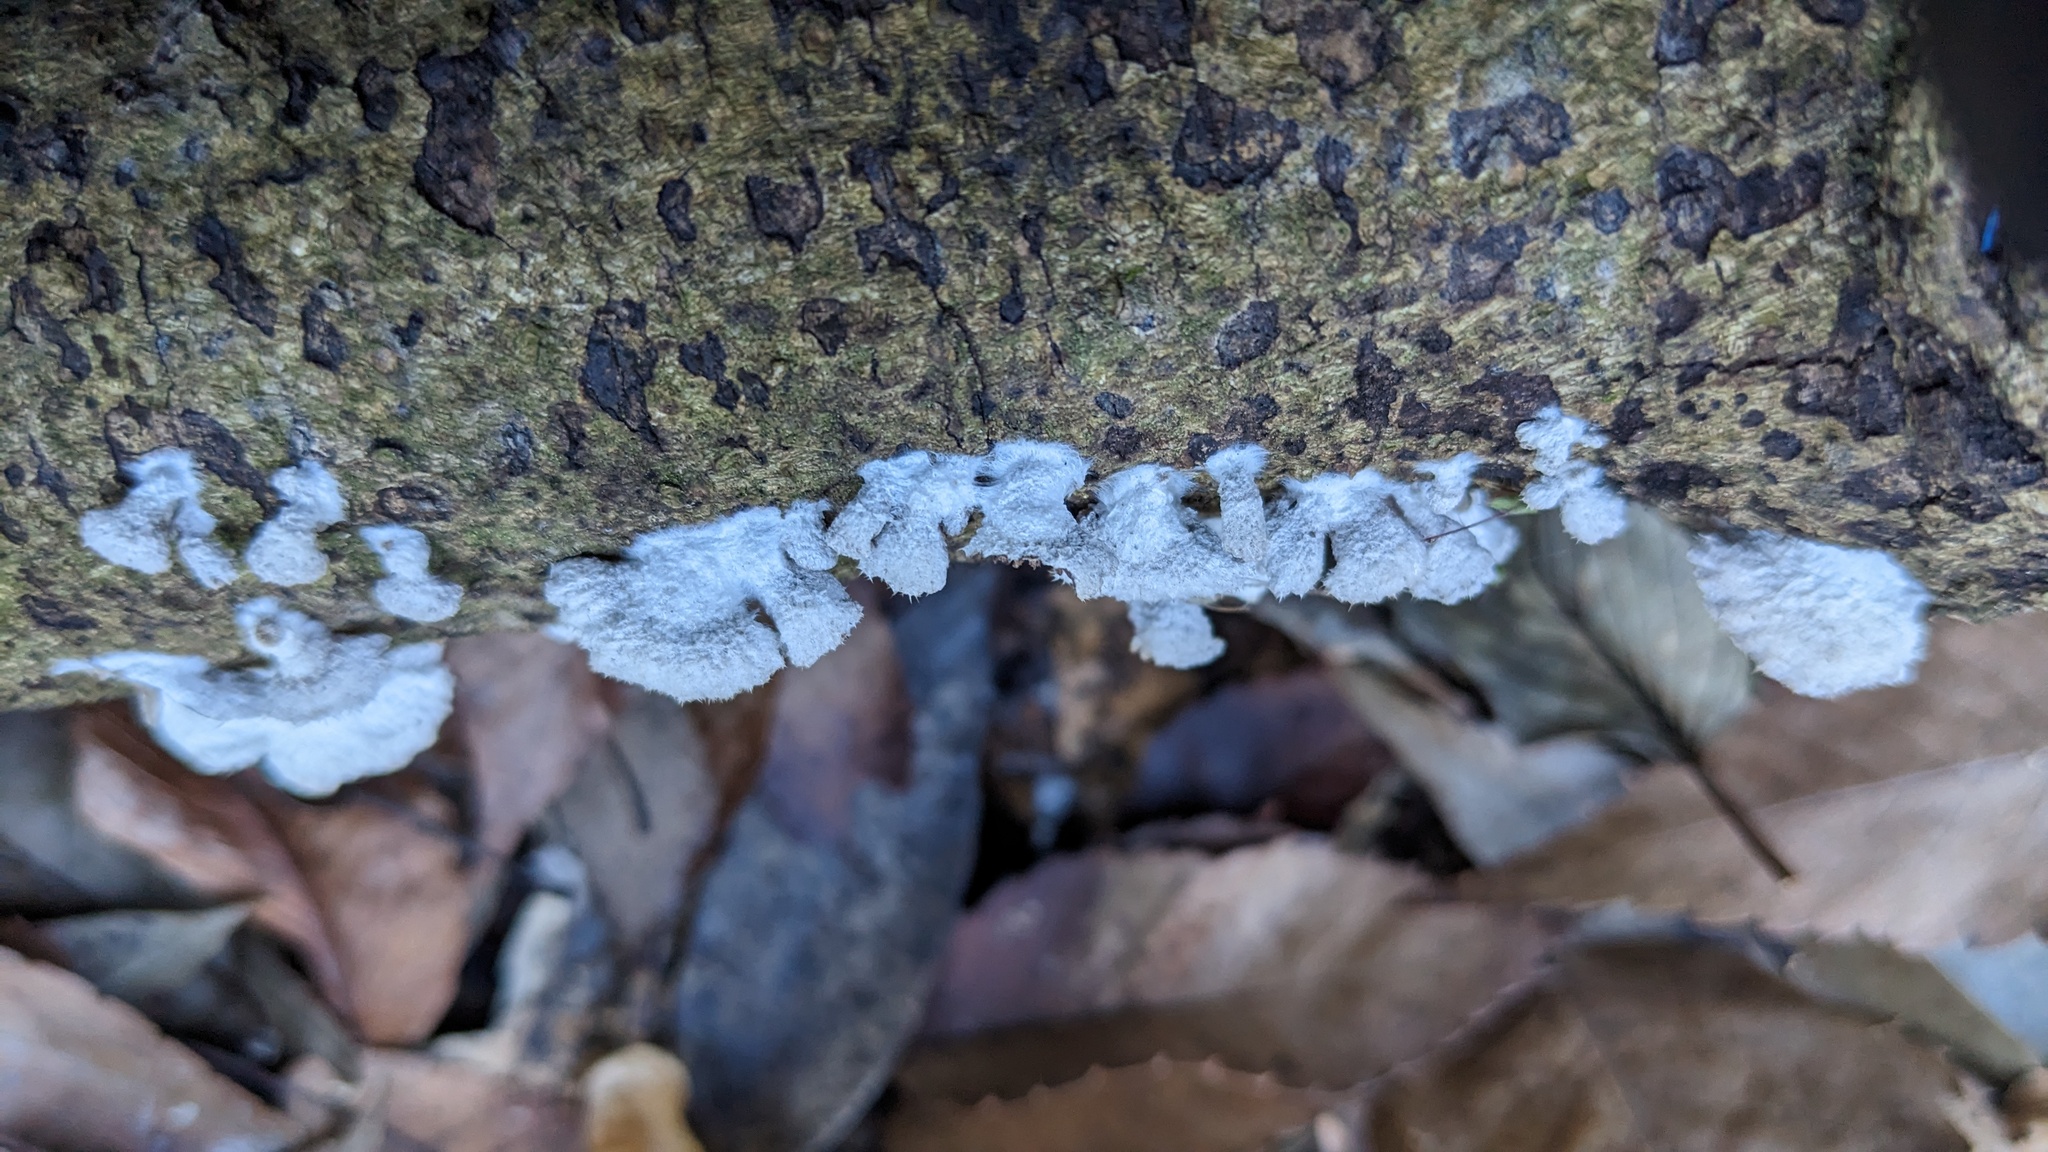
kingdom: Fungi
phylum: Basidiomycota
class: Agaricomycetes
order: Agaricales
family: Schizophyllaceae
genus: Schizophyllum
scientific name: Schizophyllum commune
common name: Common porecrust
